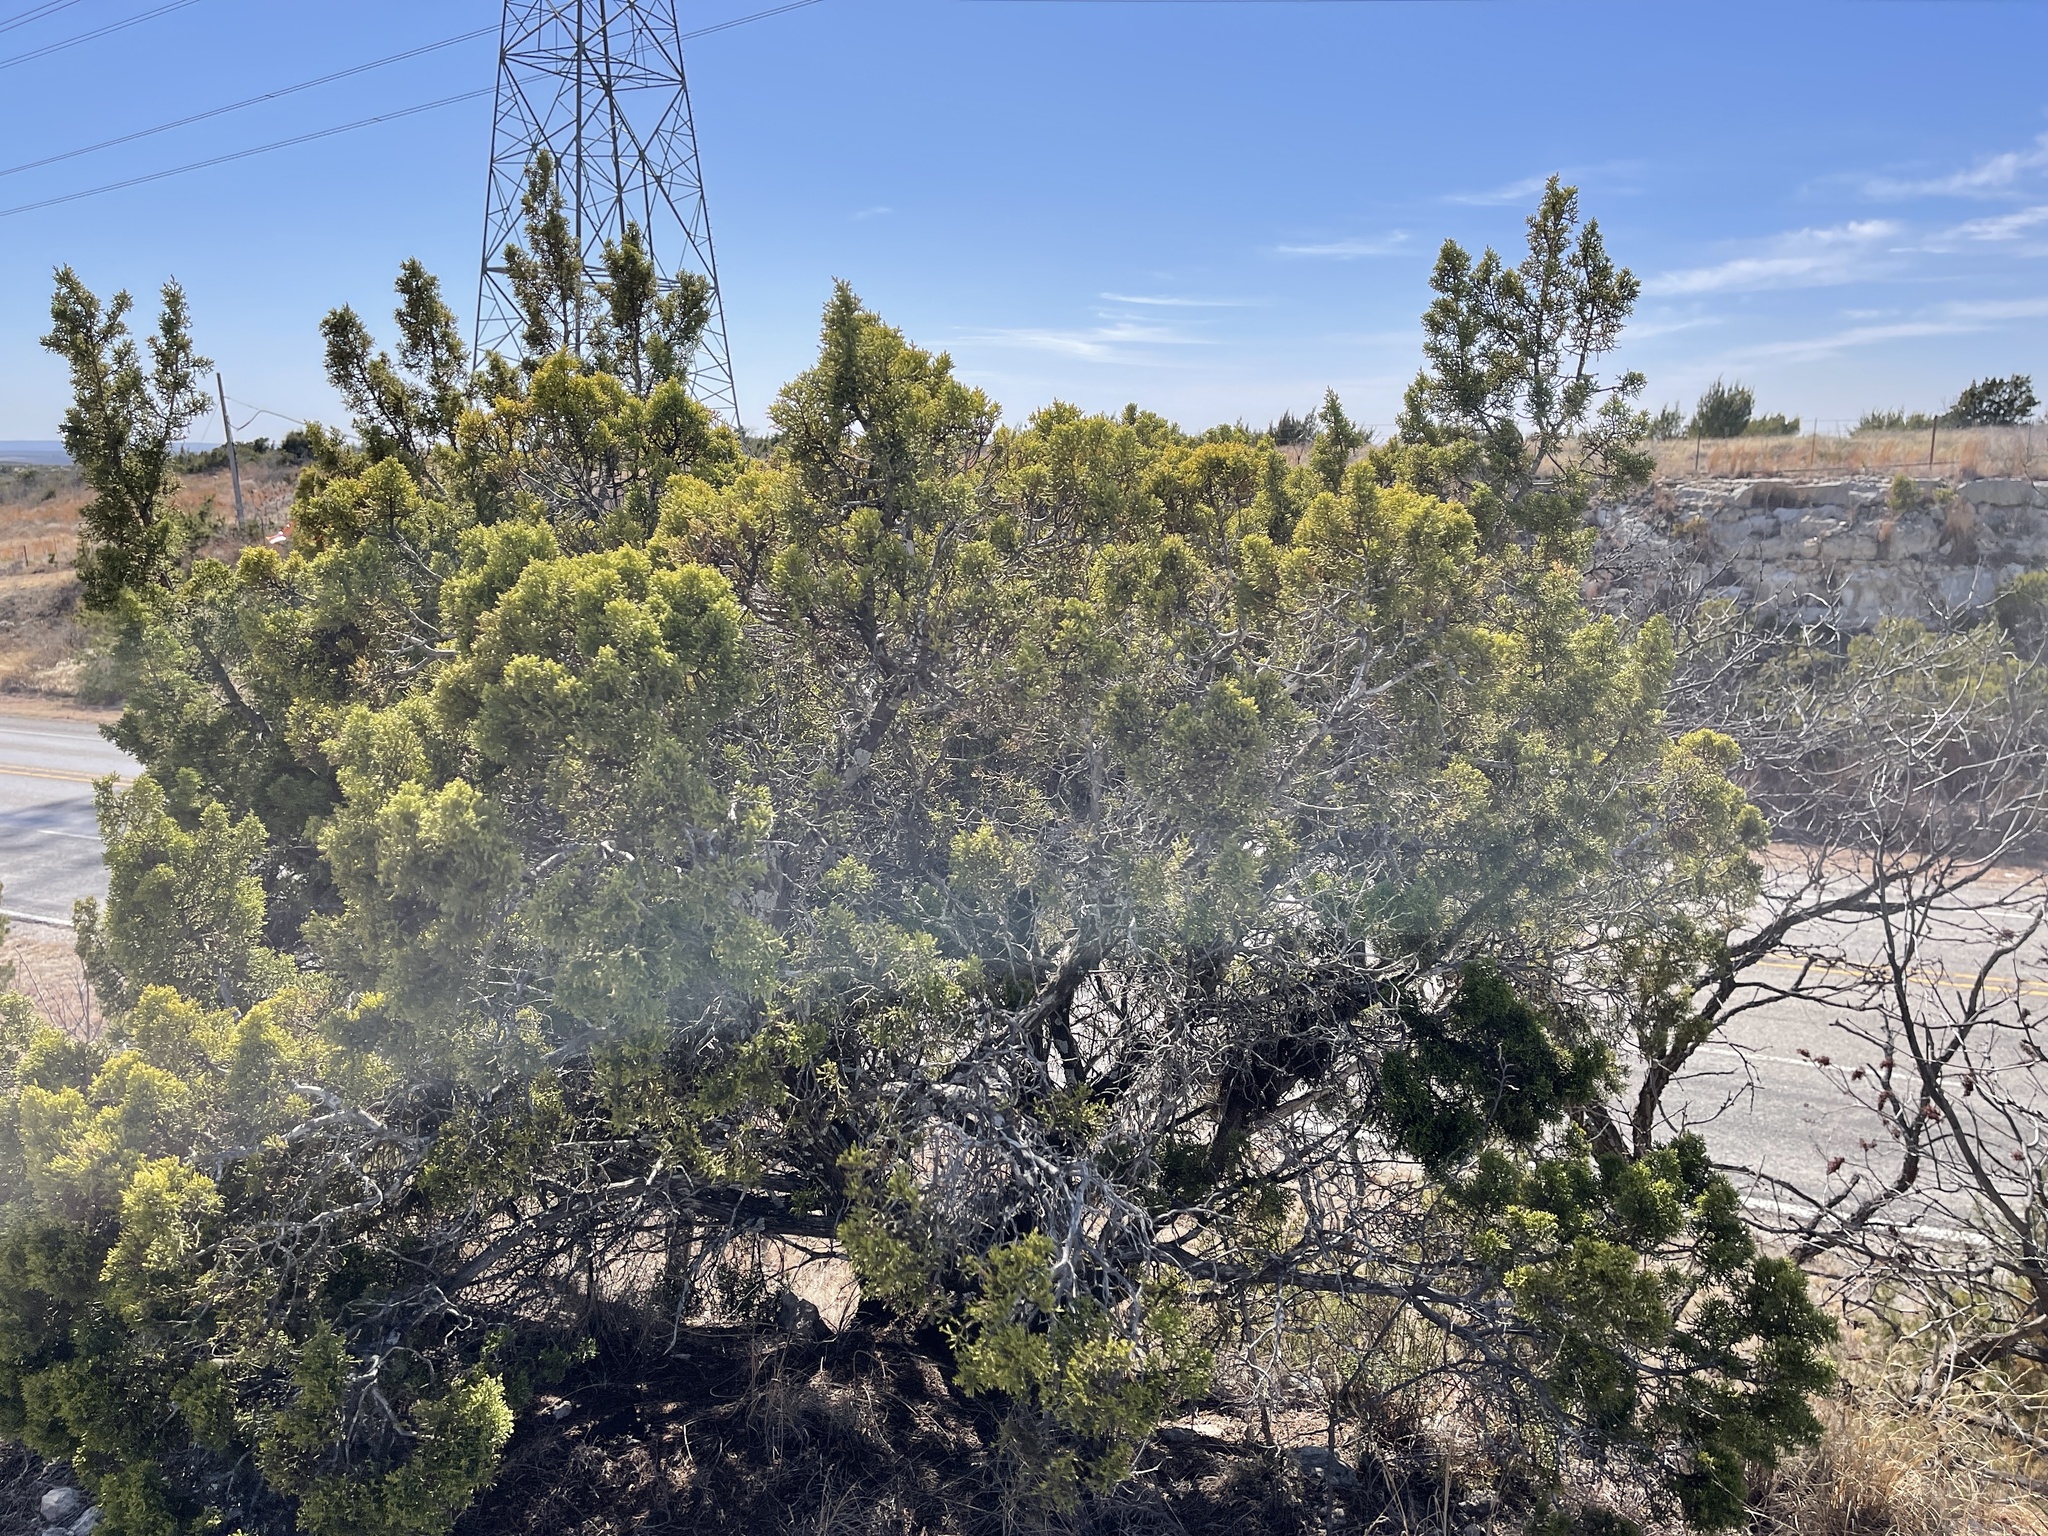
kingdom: Plantae
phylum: Tracheophyta
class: Pinopsida
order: Pinales
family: Cupressaceae
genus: Juniperus
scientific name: Juniperus pinchotii
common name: Pinchot juniper
